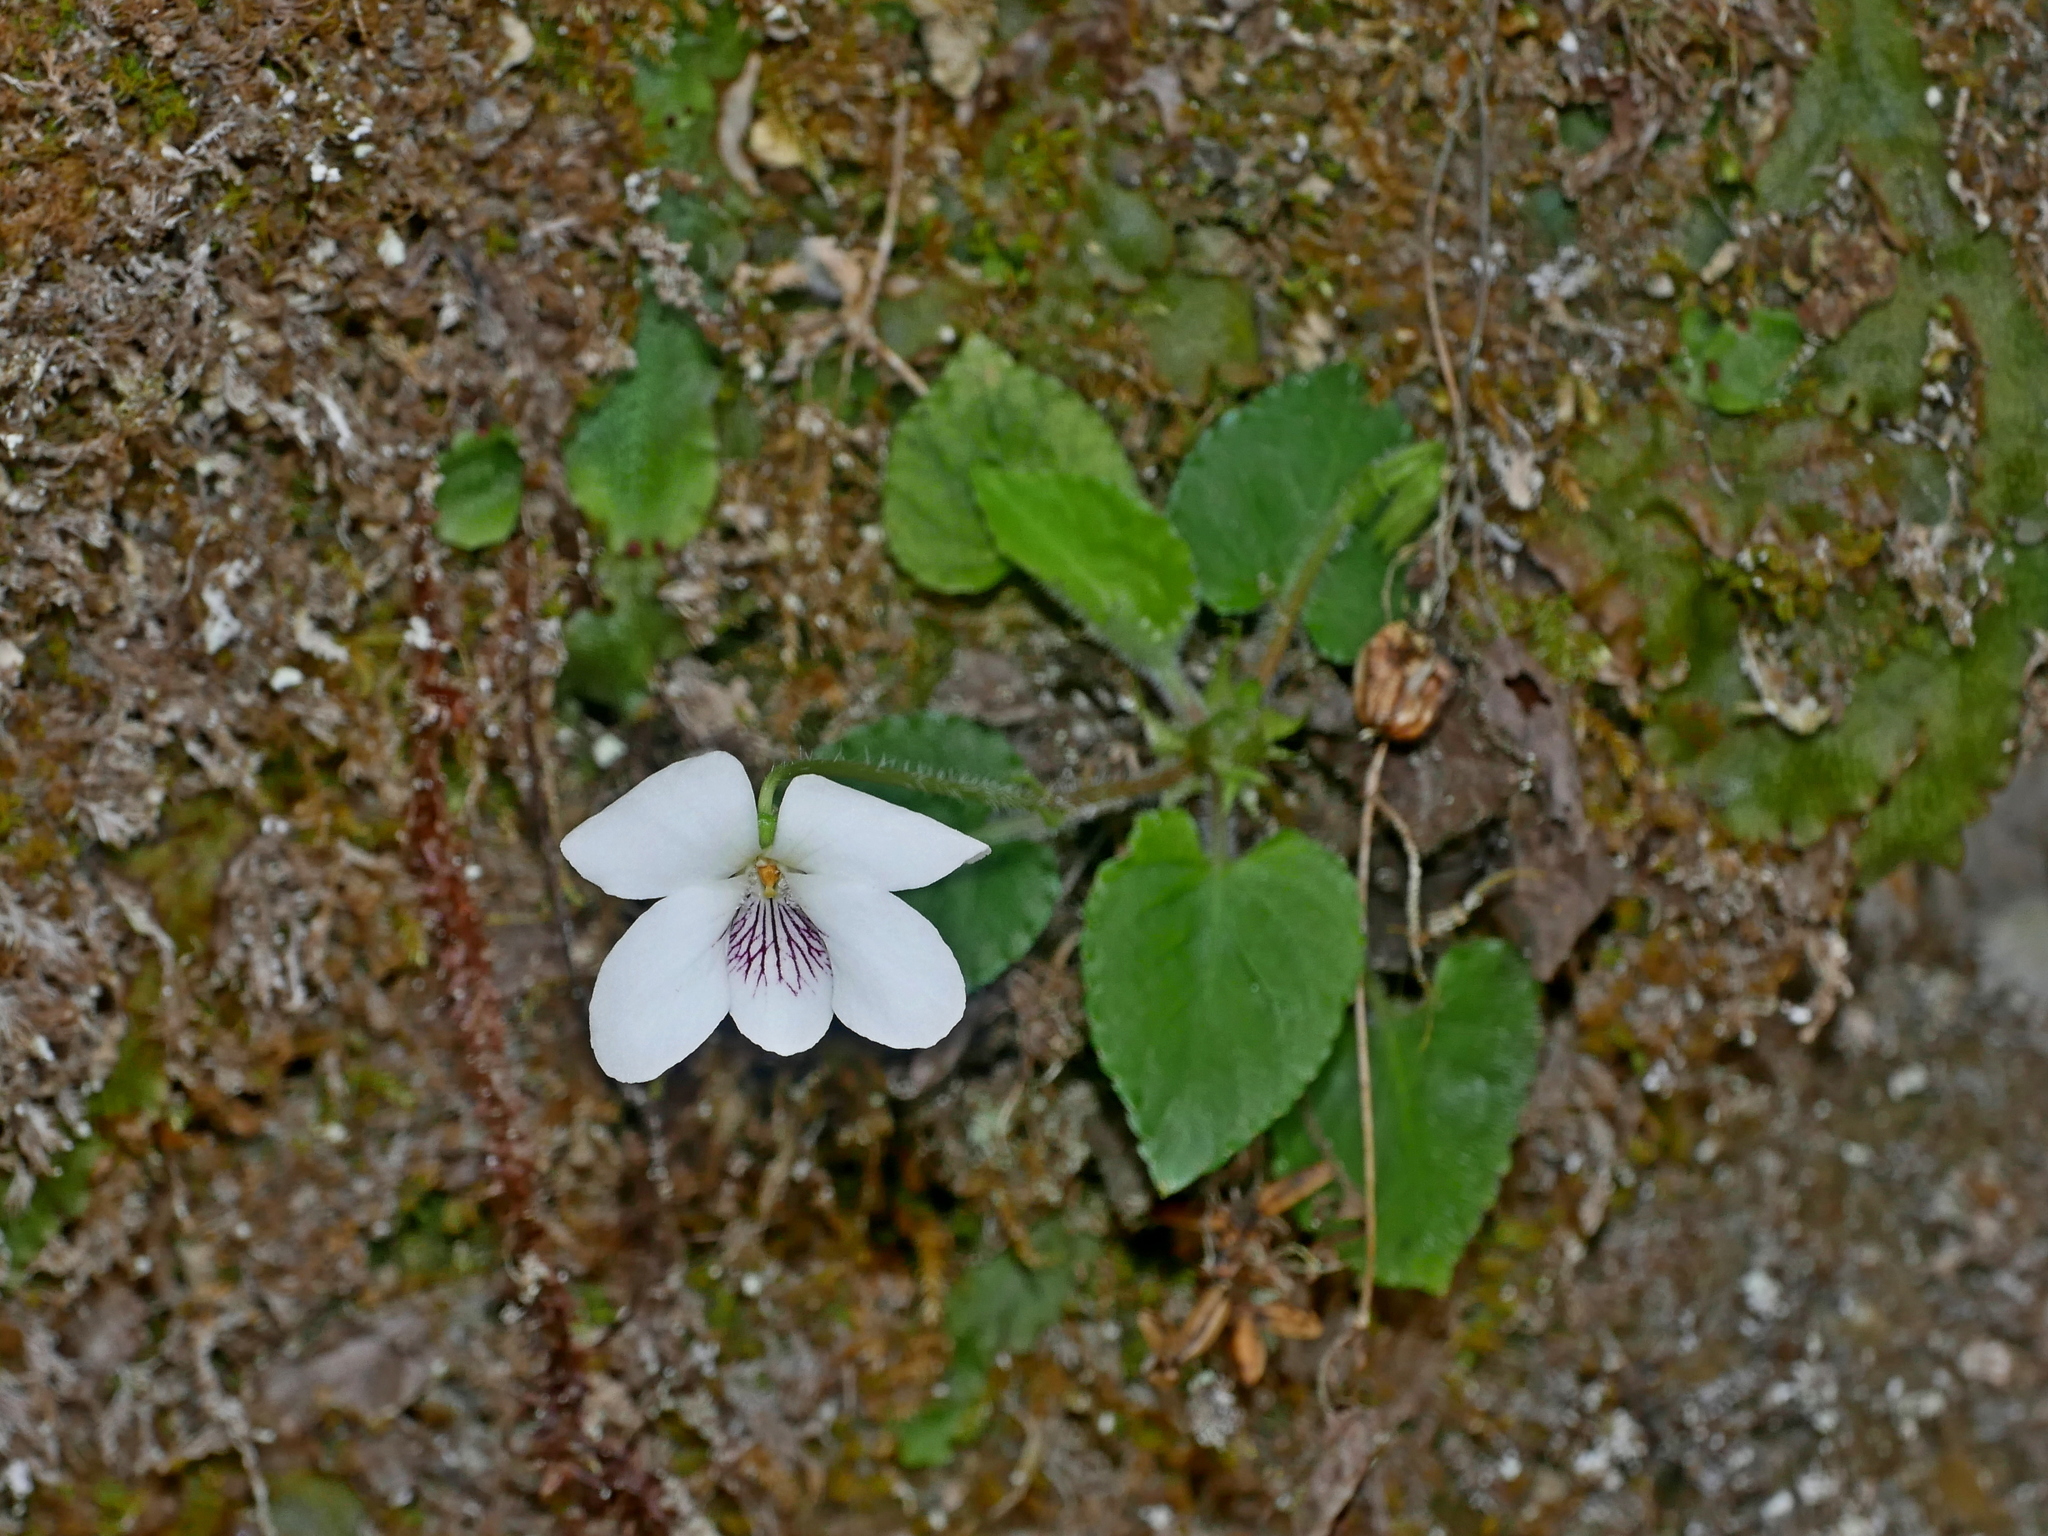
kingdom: Plantae
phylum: Tracheophyta
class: Magnoliopsida
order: Malpighiales
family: Violaceae
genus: Viola
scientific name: Viola adenothrix
